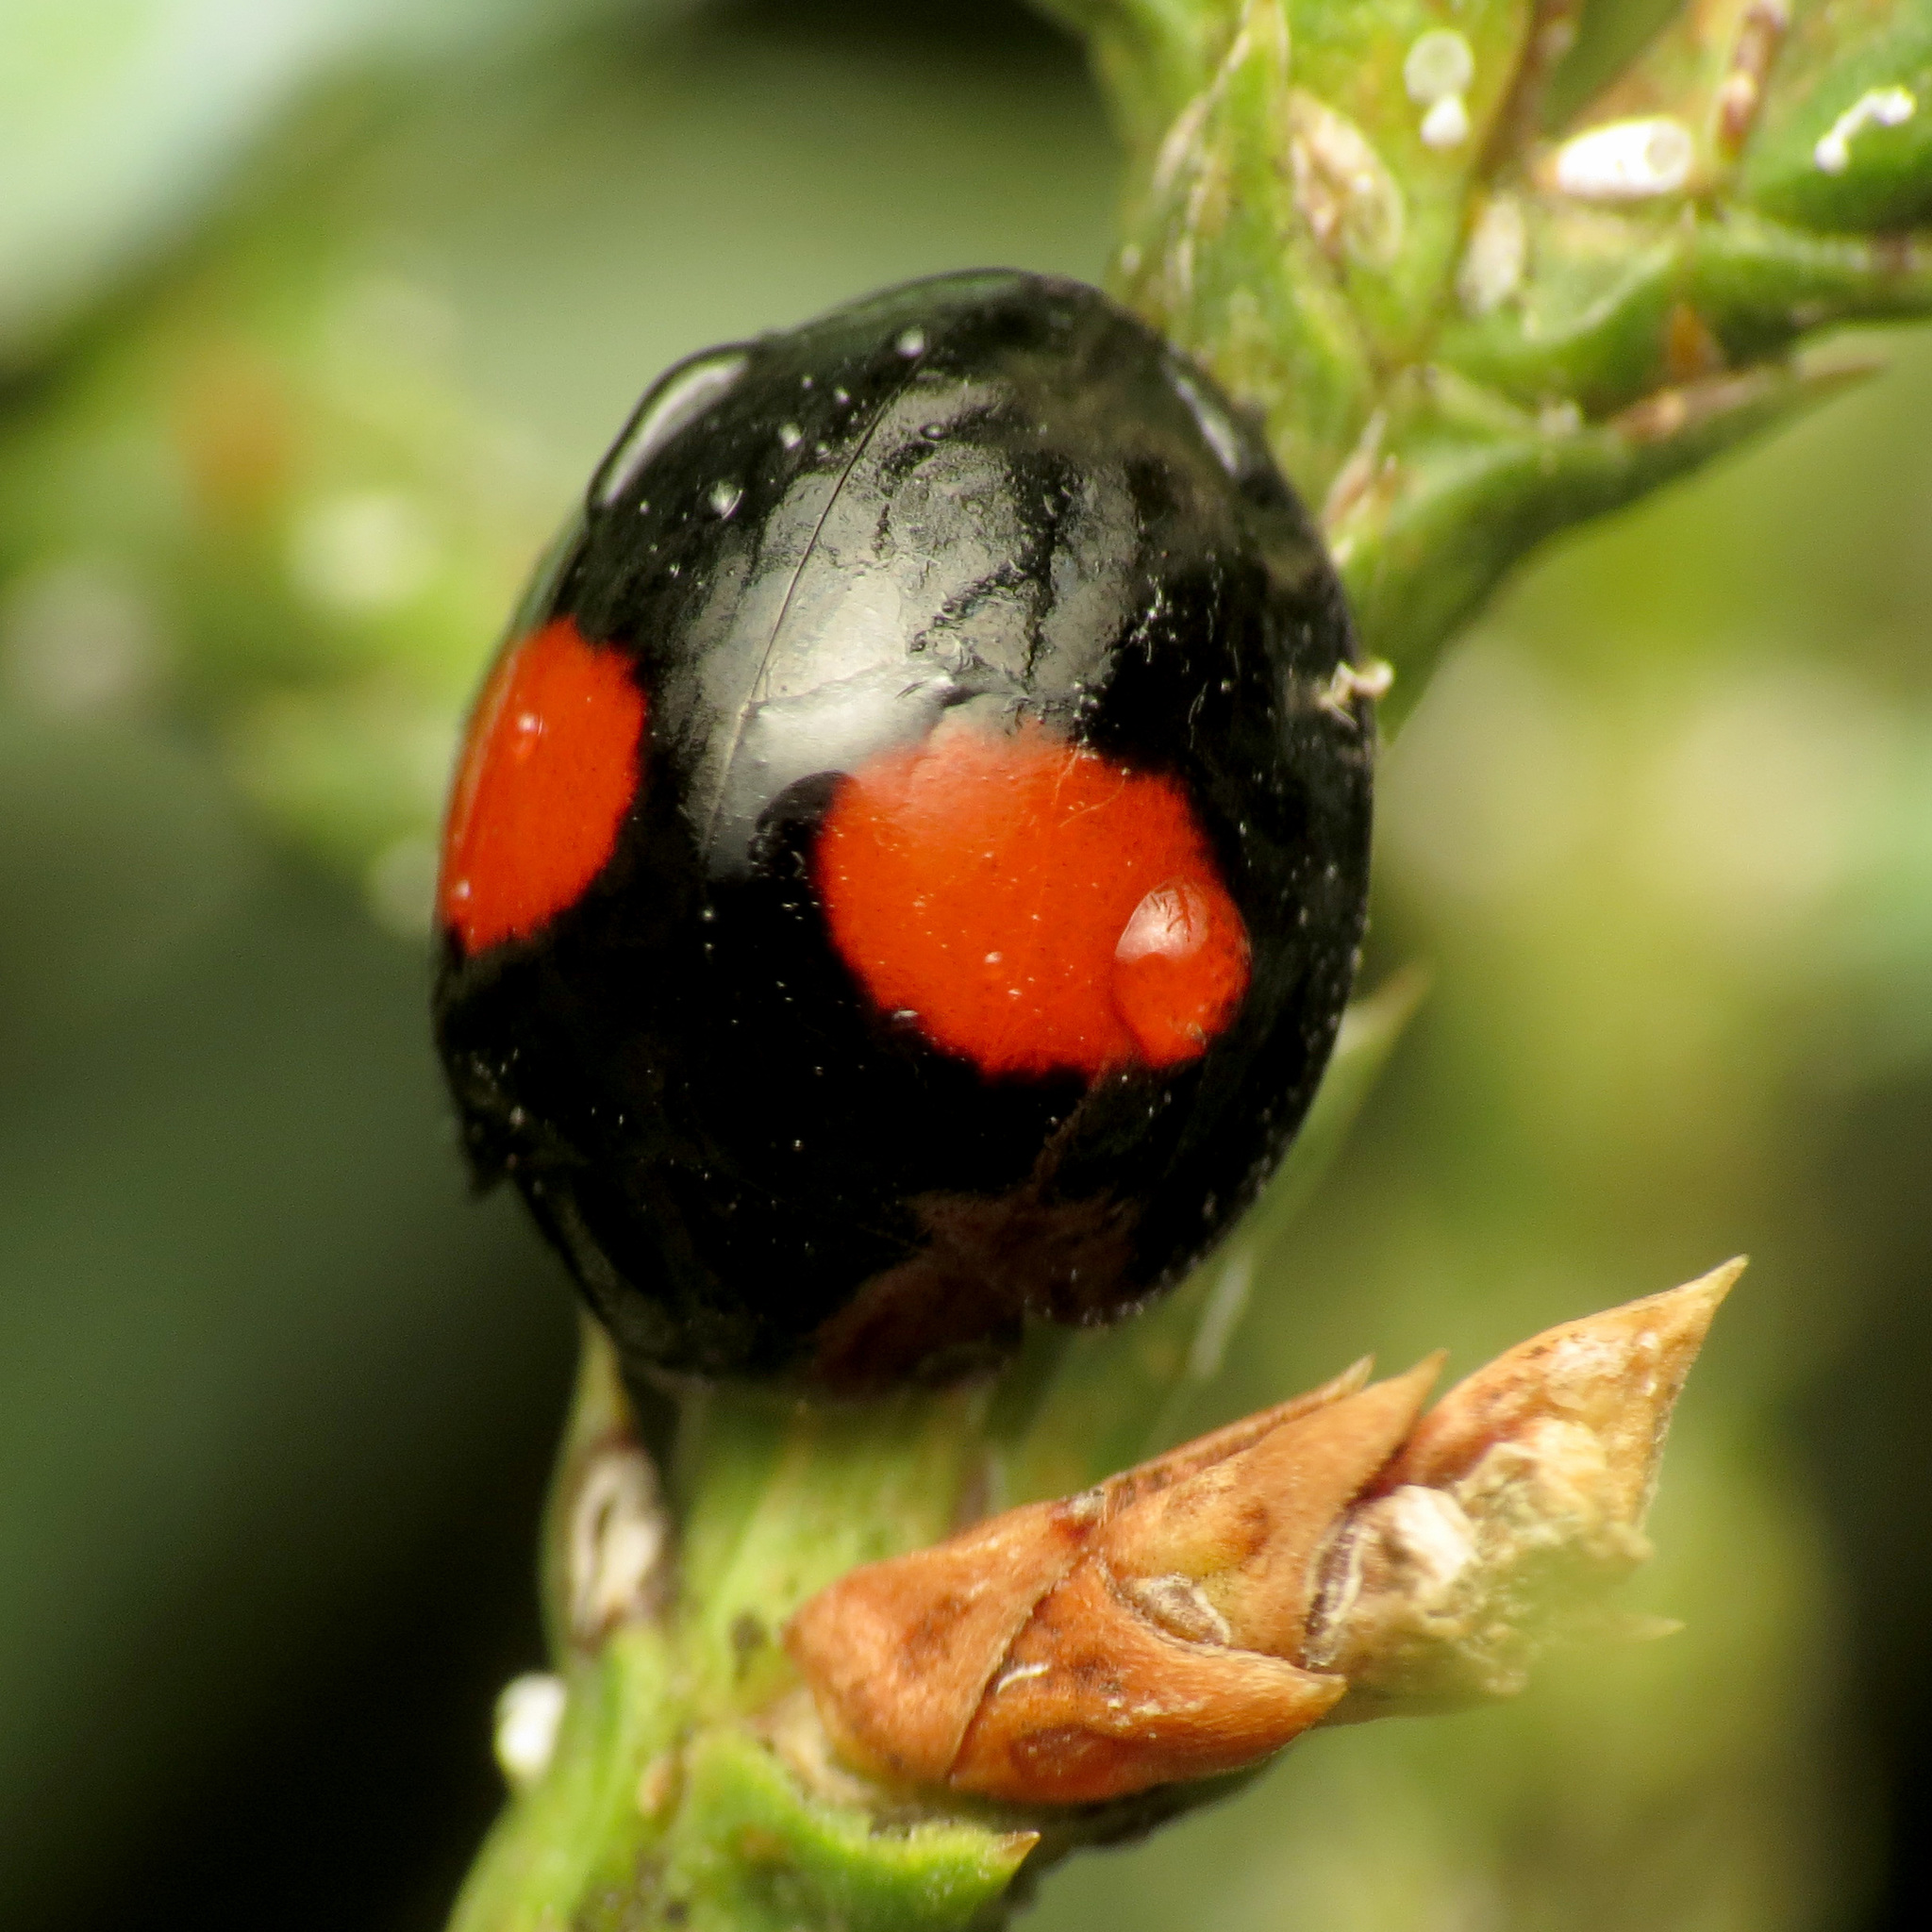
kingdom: Animalia
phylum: Arthropoda
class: Insecta
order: Coleoptera
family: Coccinellidae
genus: Chilocorus
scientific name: Chilocorus cacti
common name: Cactus lady beetle
